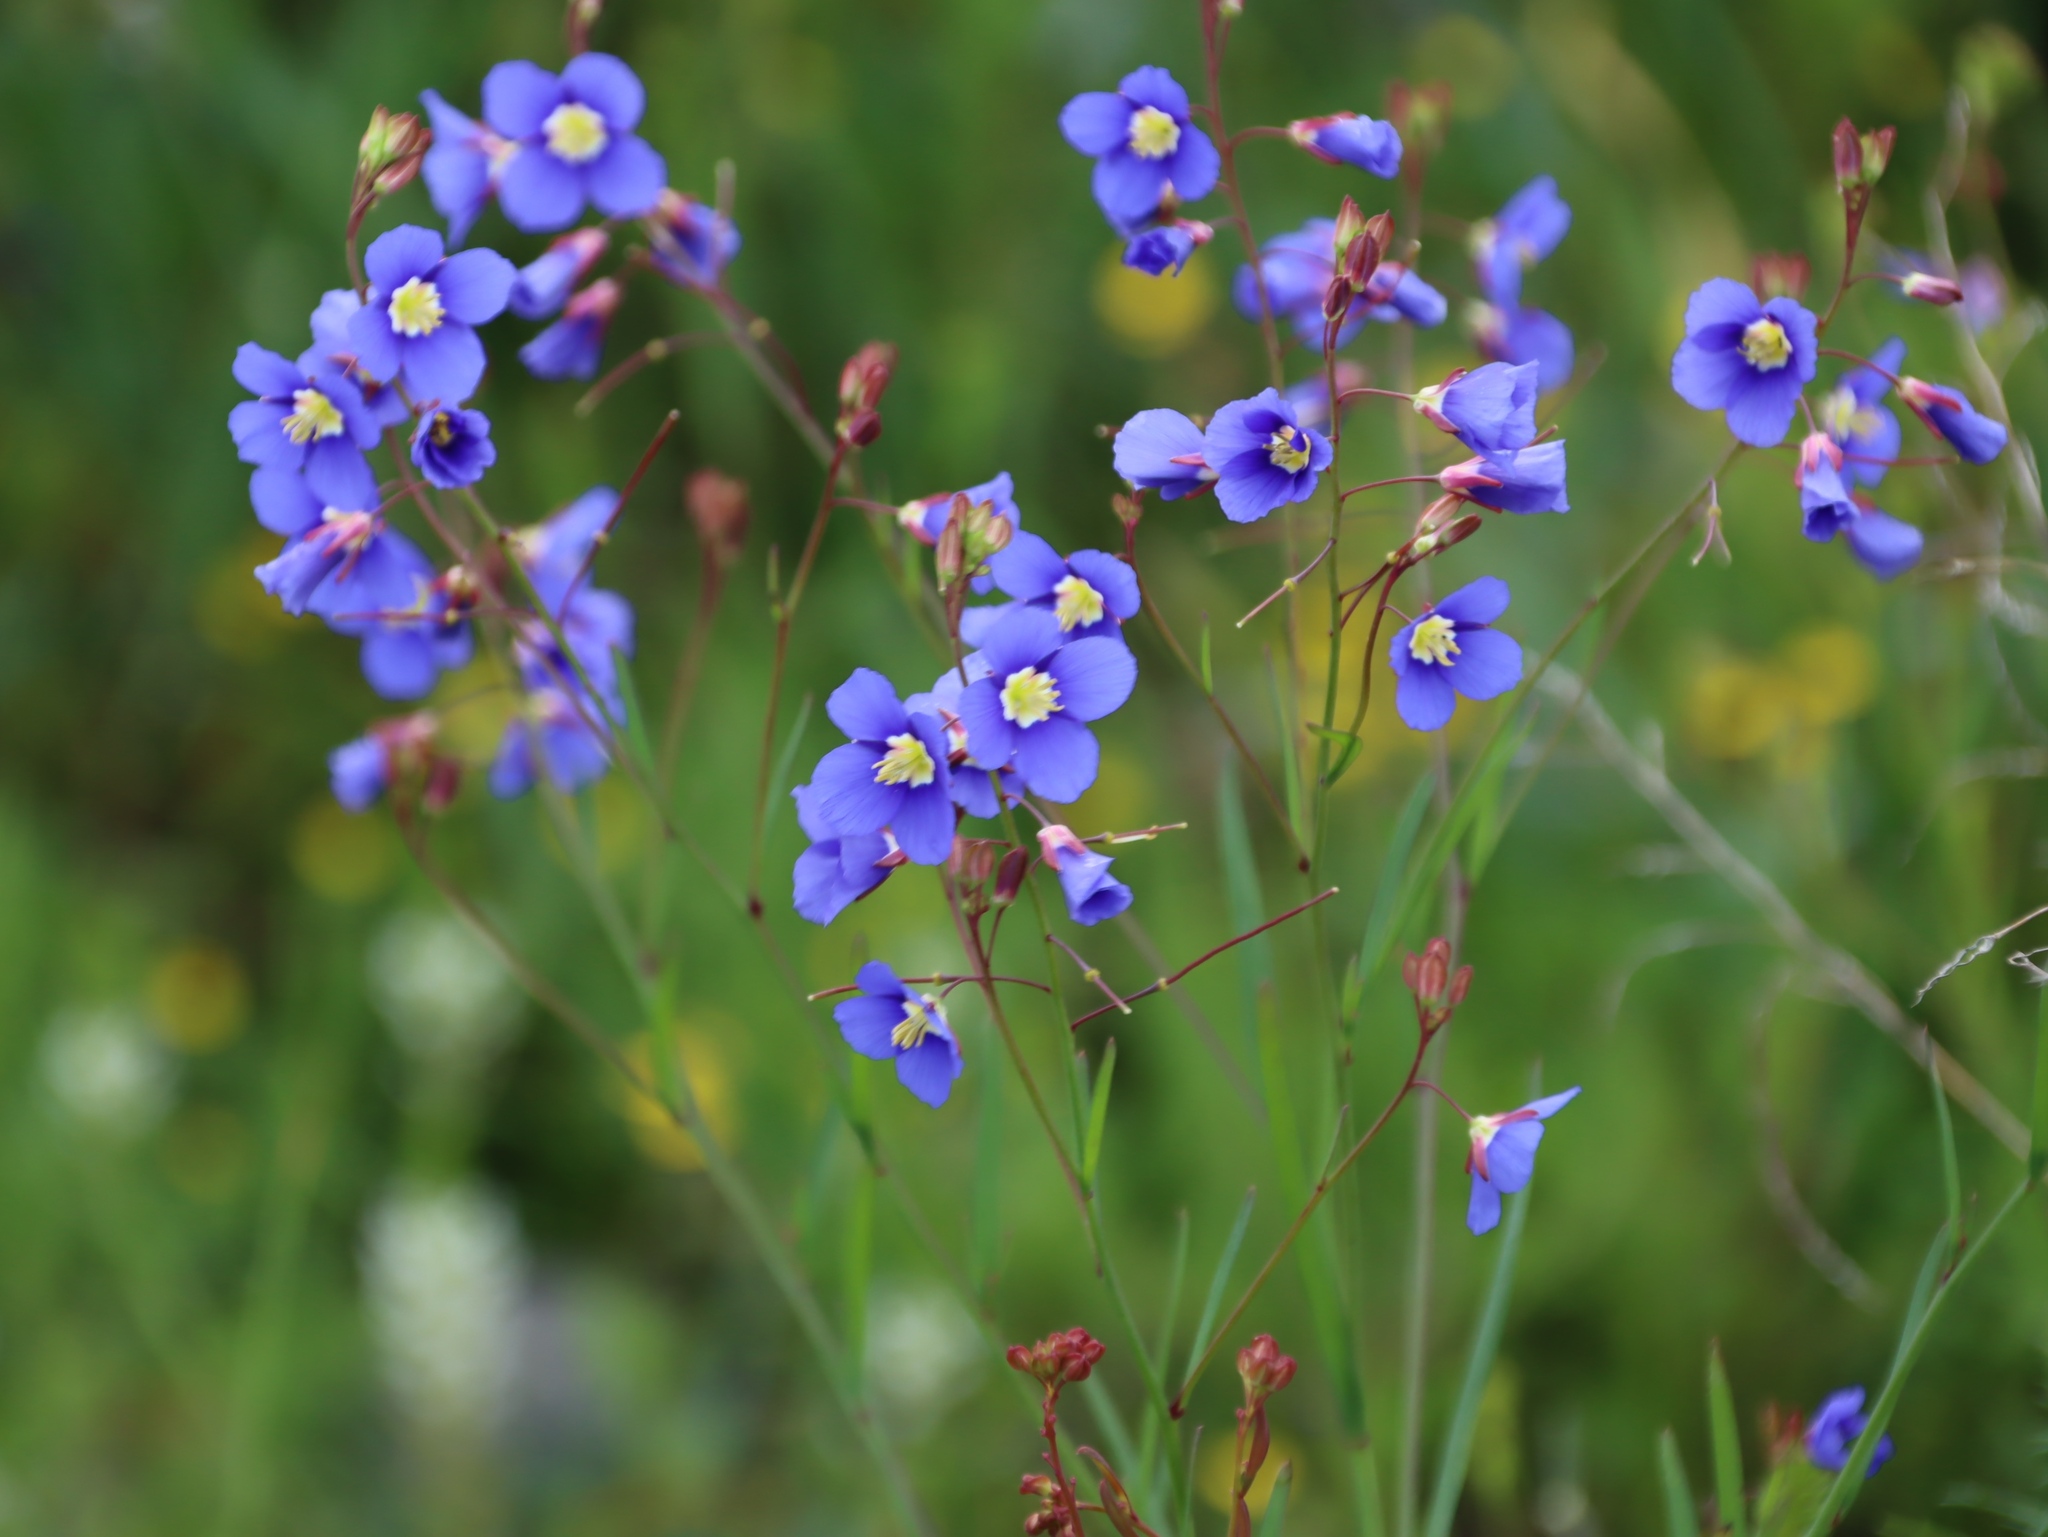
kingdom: Plantae
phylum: Tracheophyta
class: Magnoliopsida
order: Brassicales
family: Brassicaceae
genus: Heliophila
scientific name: Heliophila coronopifolia
